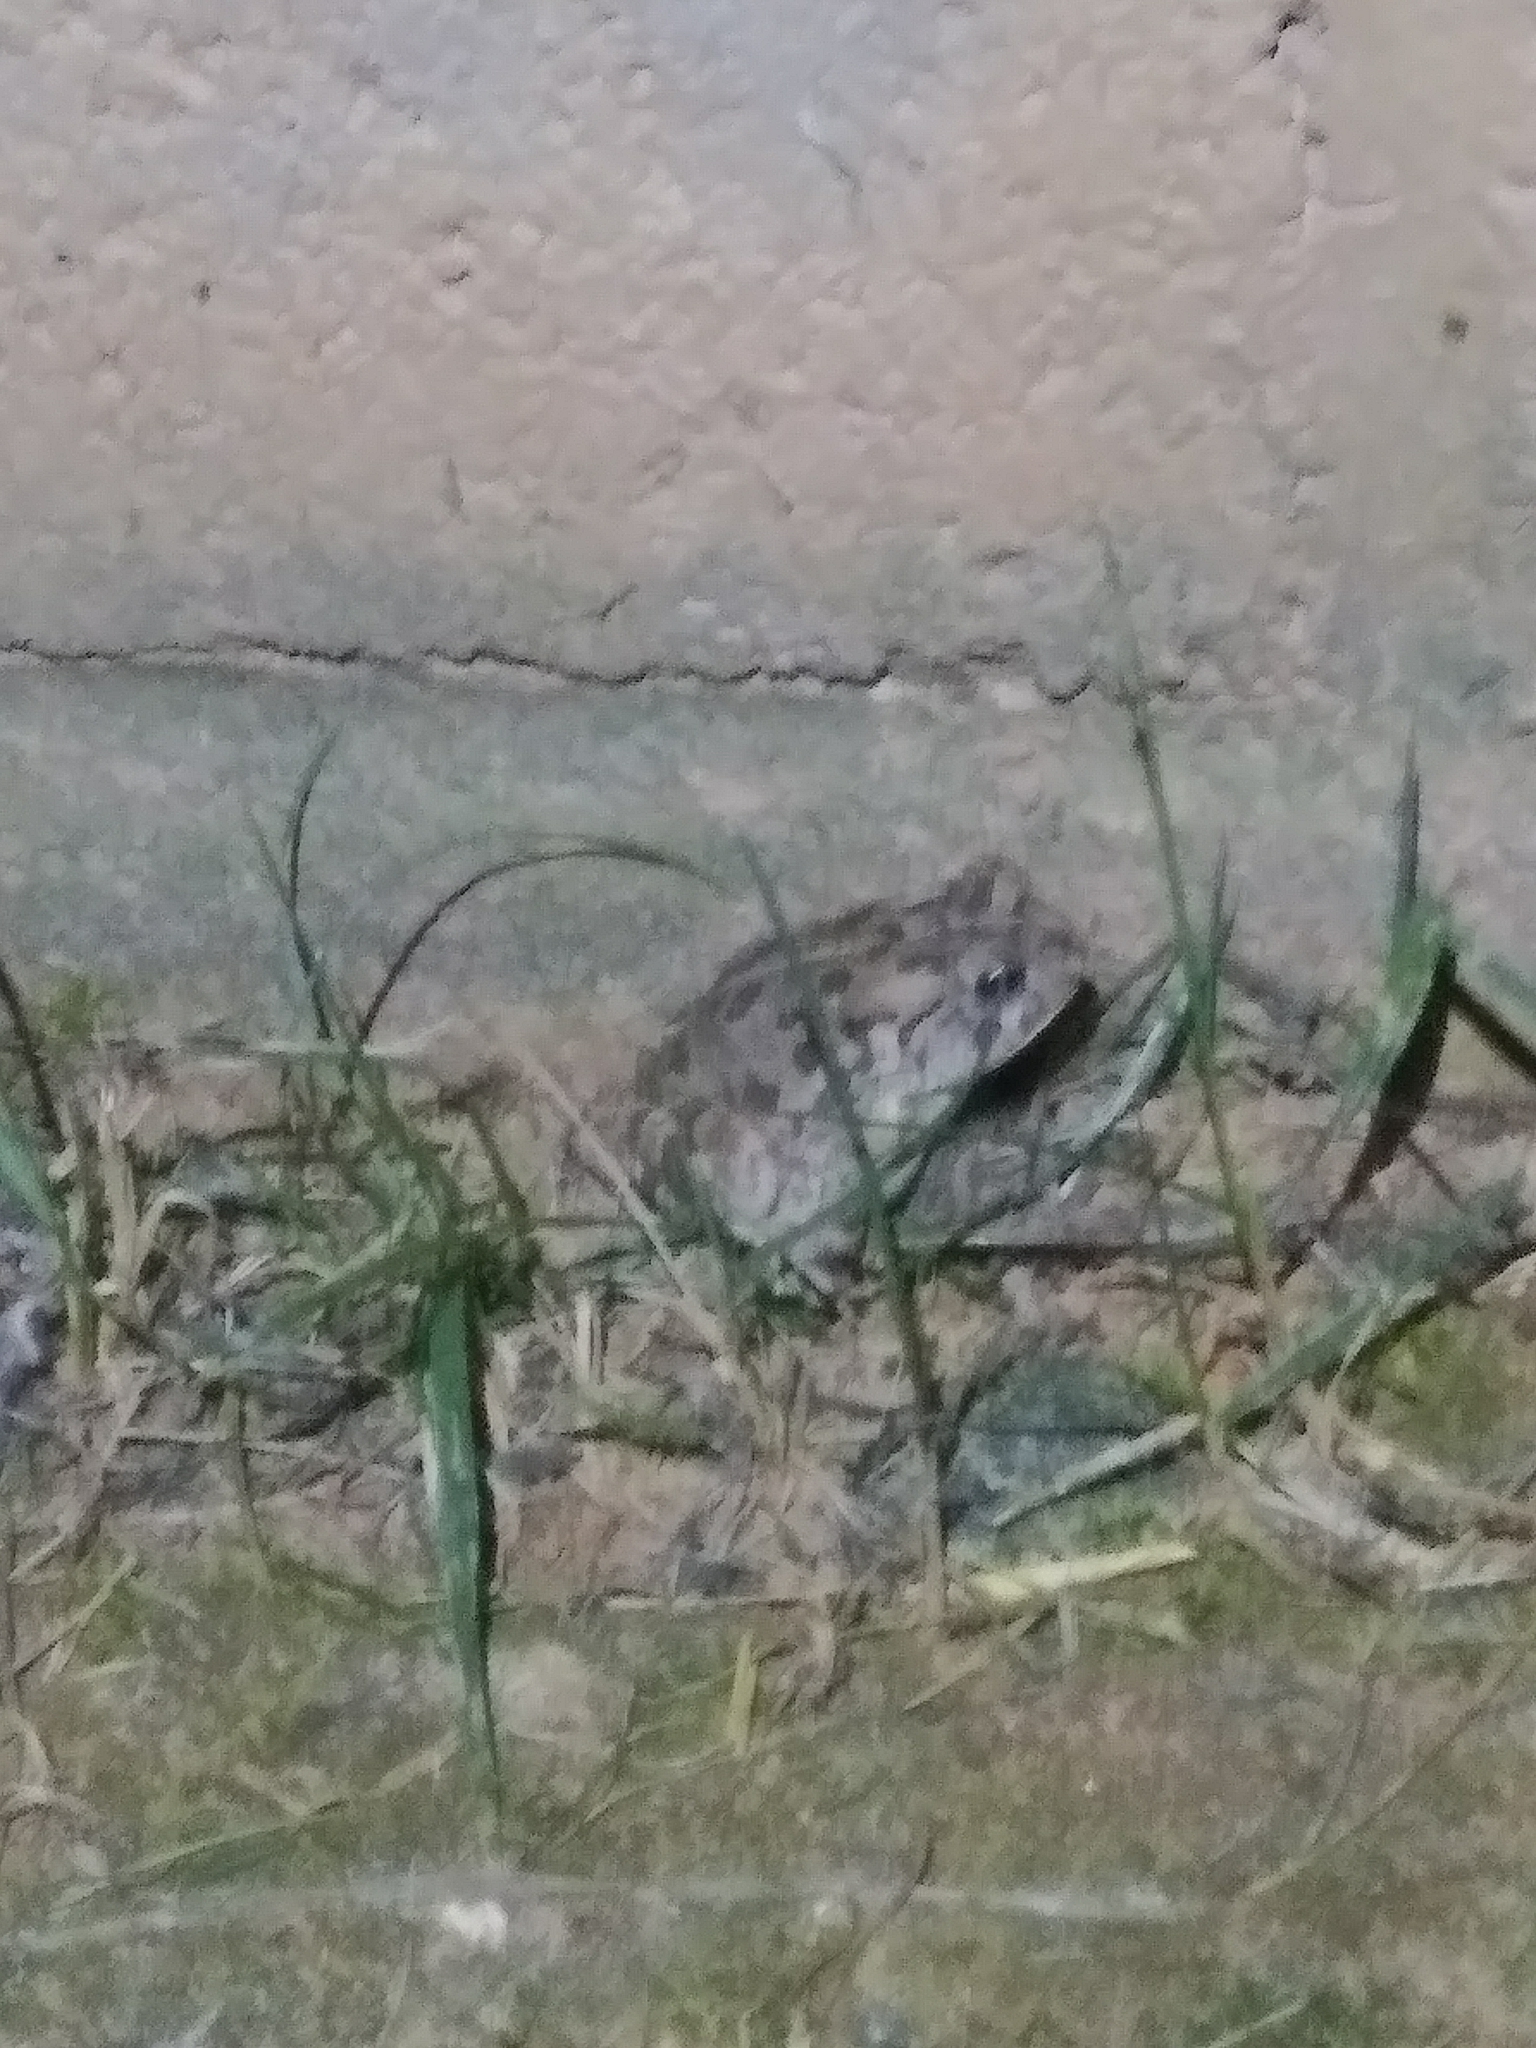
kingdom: Animalia
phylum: Chordata
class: Amphibia
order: Anura
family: Bufonidae
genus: Anaxyrus
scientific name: Anaxyrus fowleri
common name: Fowler's toad
